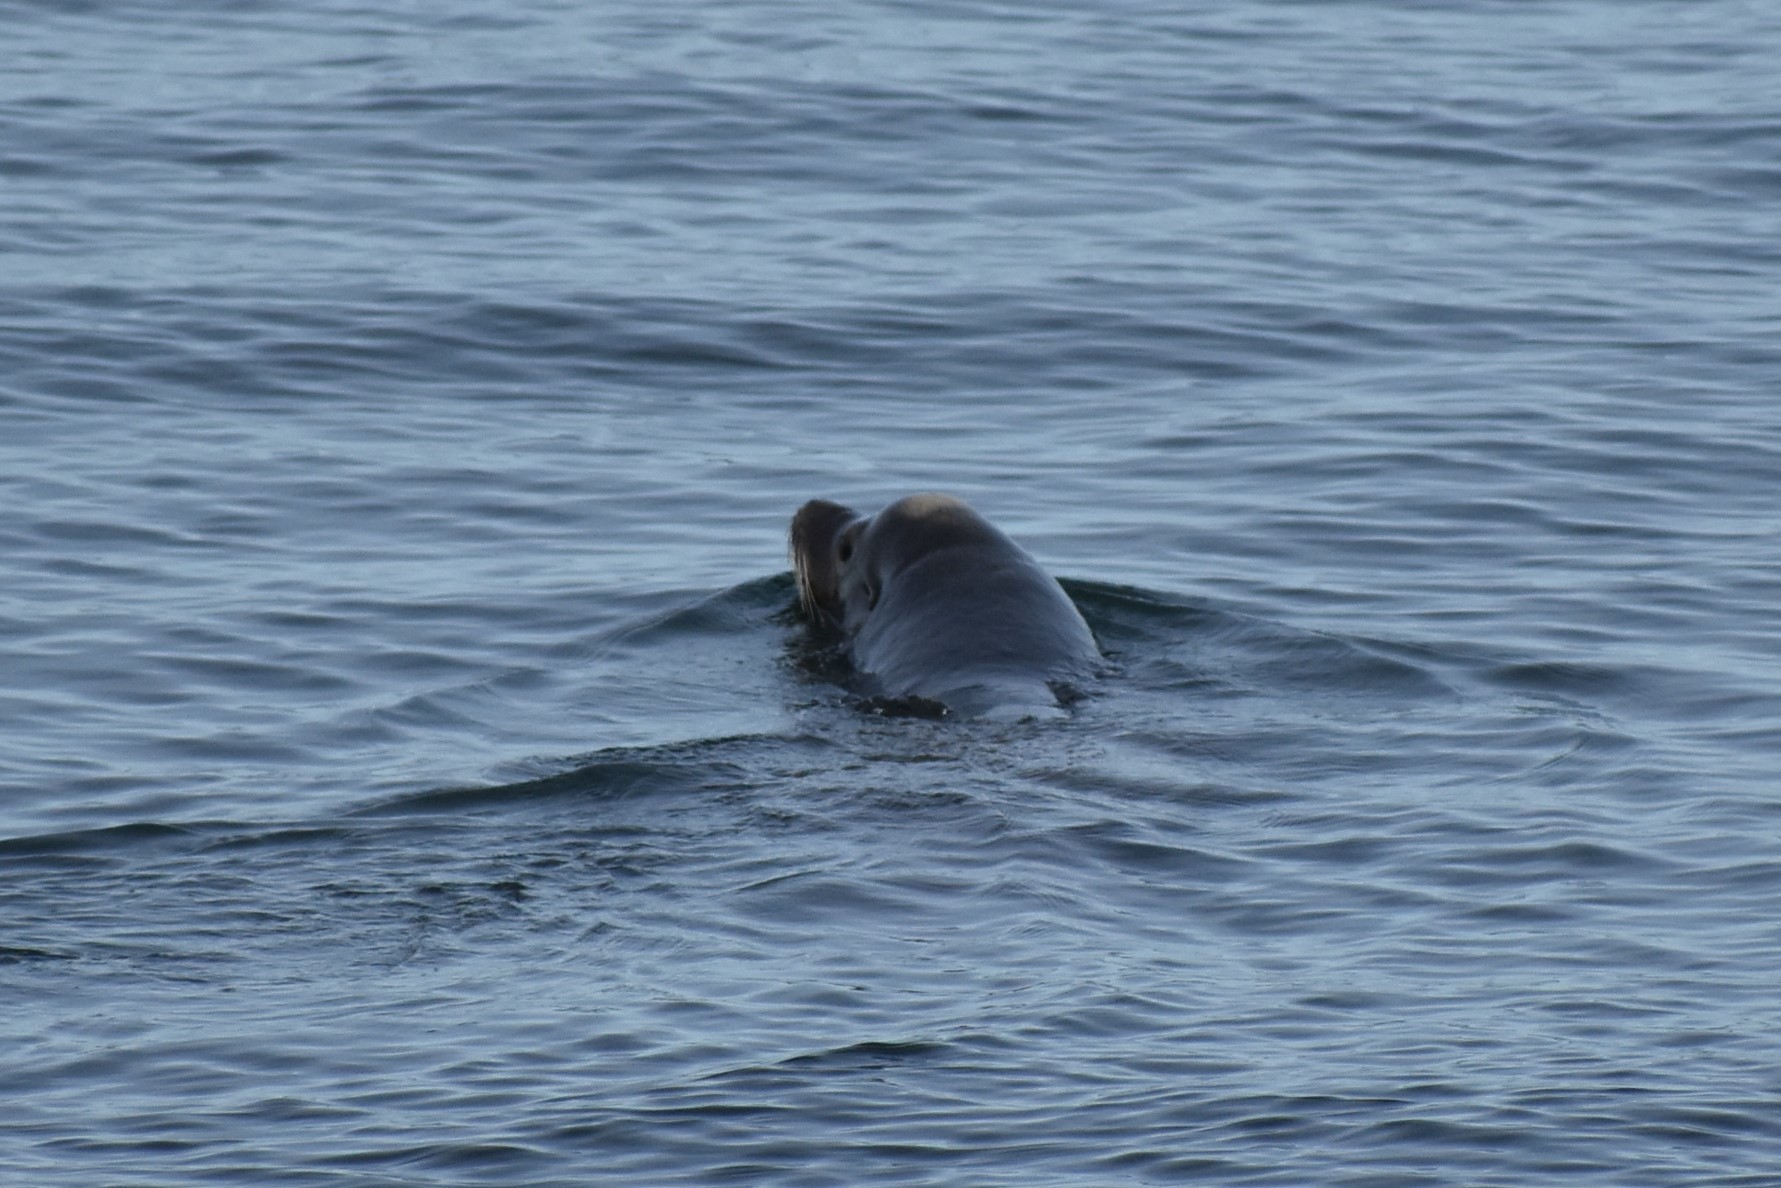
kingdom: Animalia
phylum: Chordata
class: Mammalia
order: Carnivora
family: Otariidae
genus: Zalophus
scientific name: Zalophus californianus
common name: California sea lion
